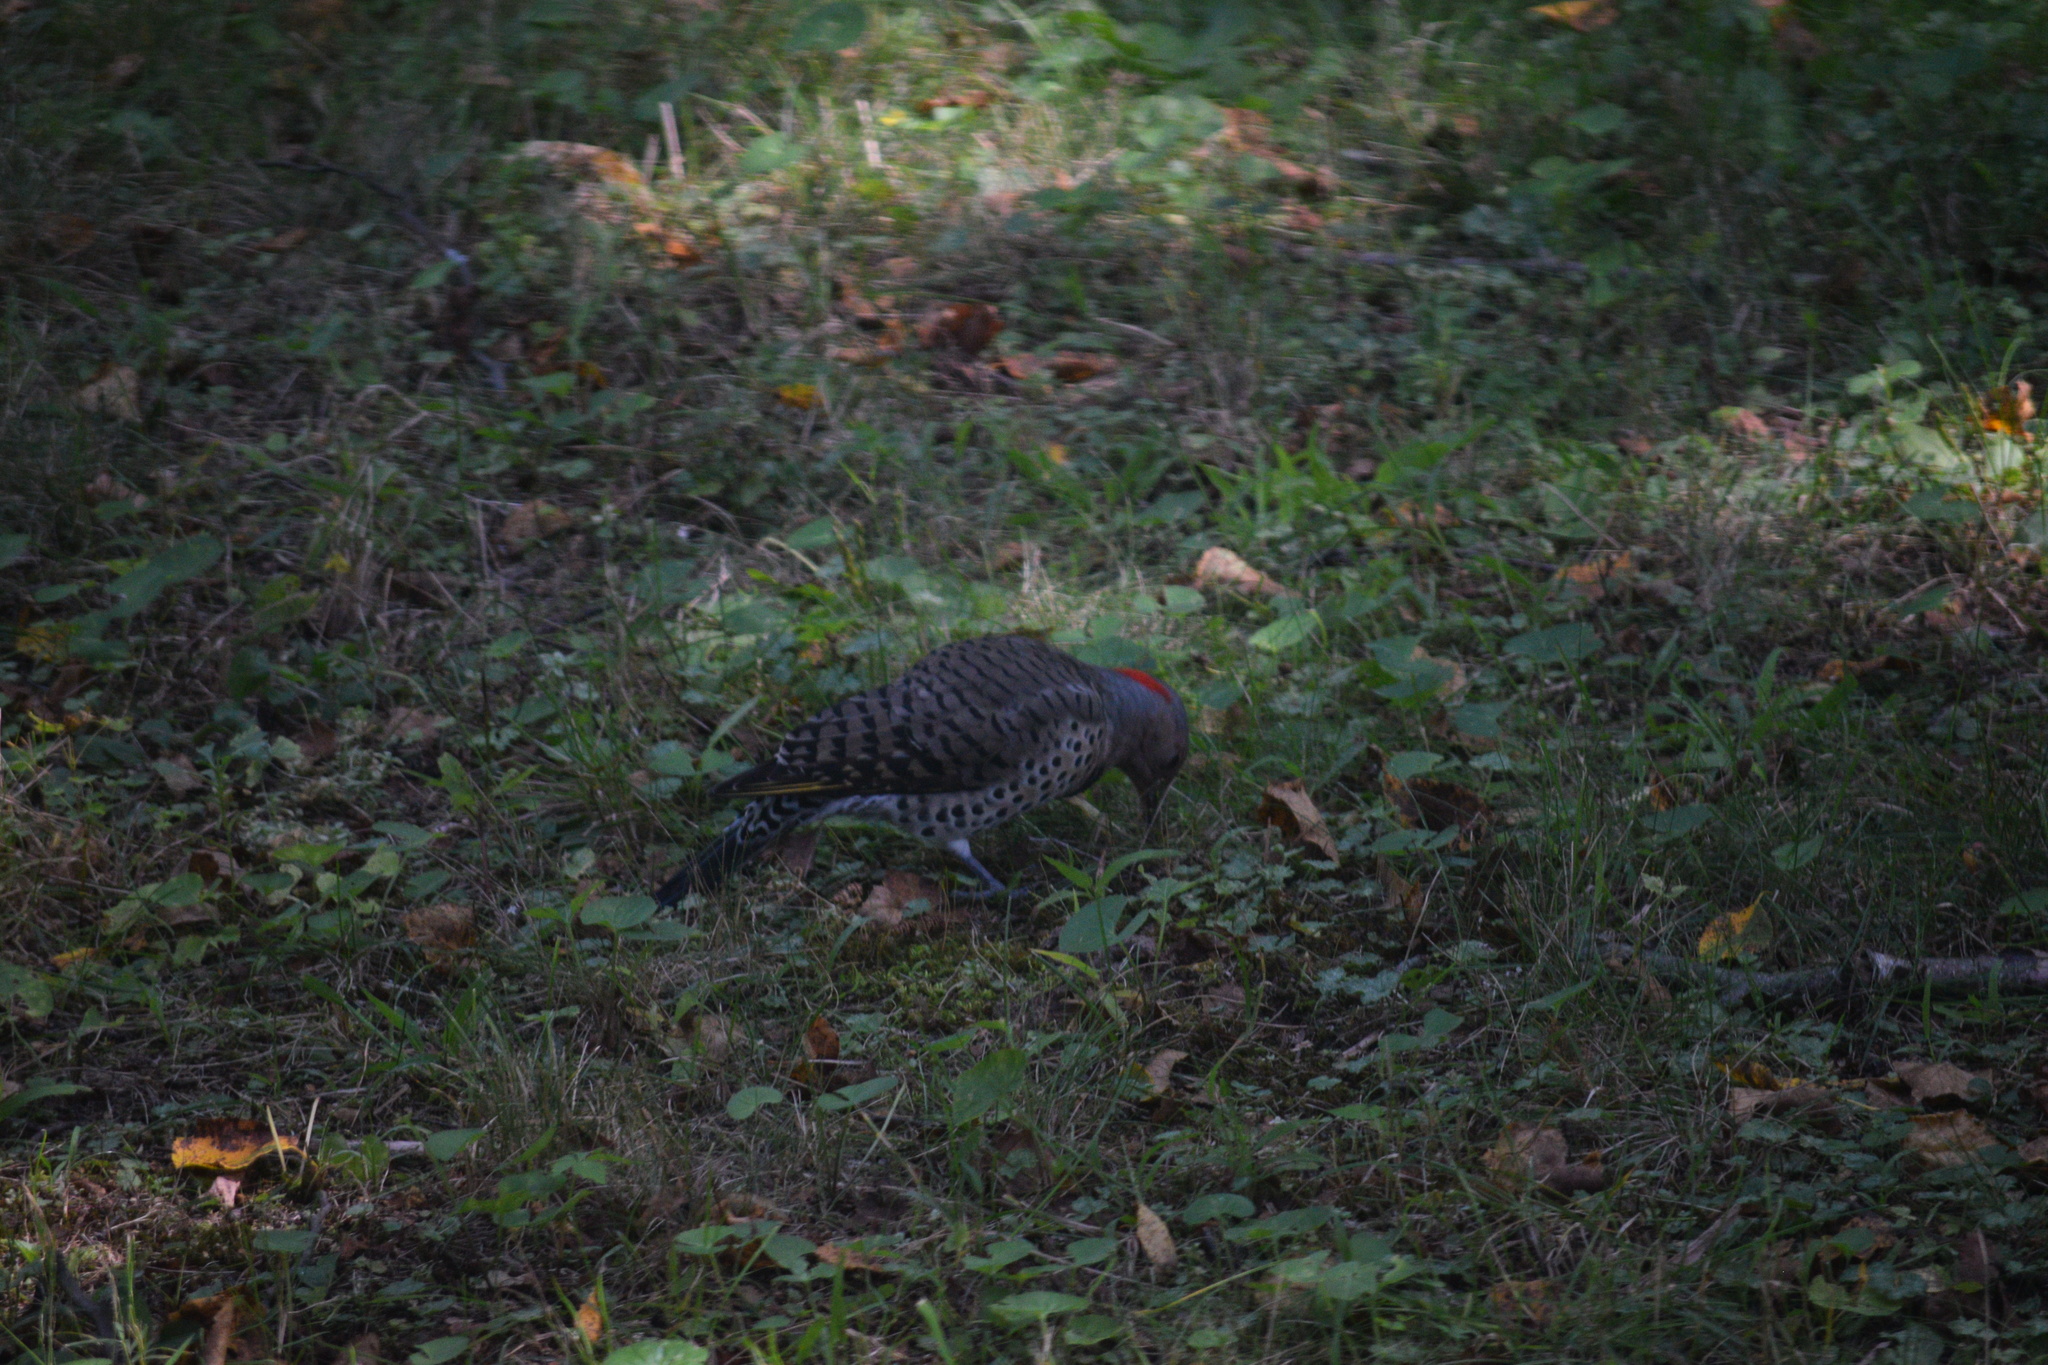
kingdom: Animalia
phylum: Chordata
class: Aves
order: Piciformes
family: Picidae
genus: Colaptes
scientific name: Colaptes auratus
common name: Northern flicker
